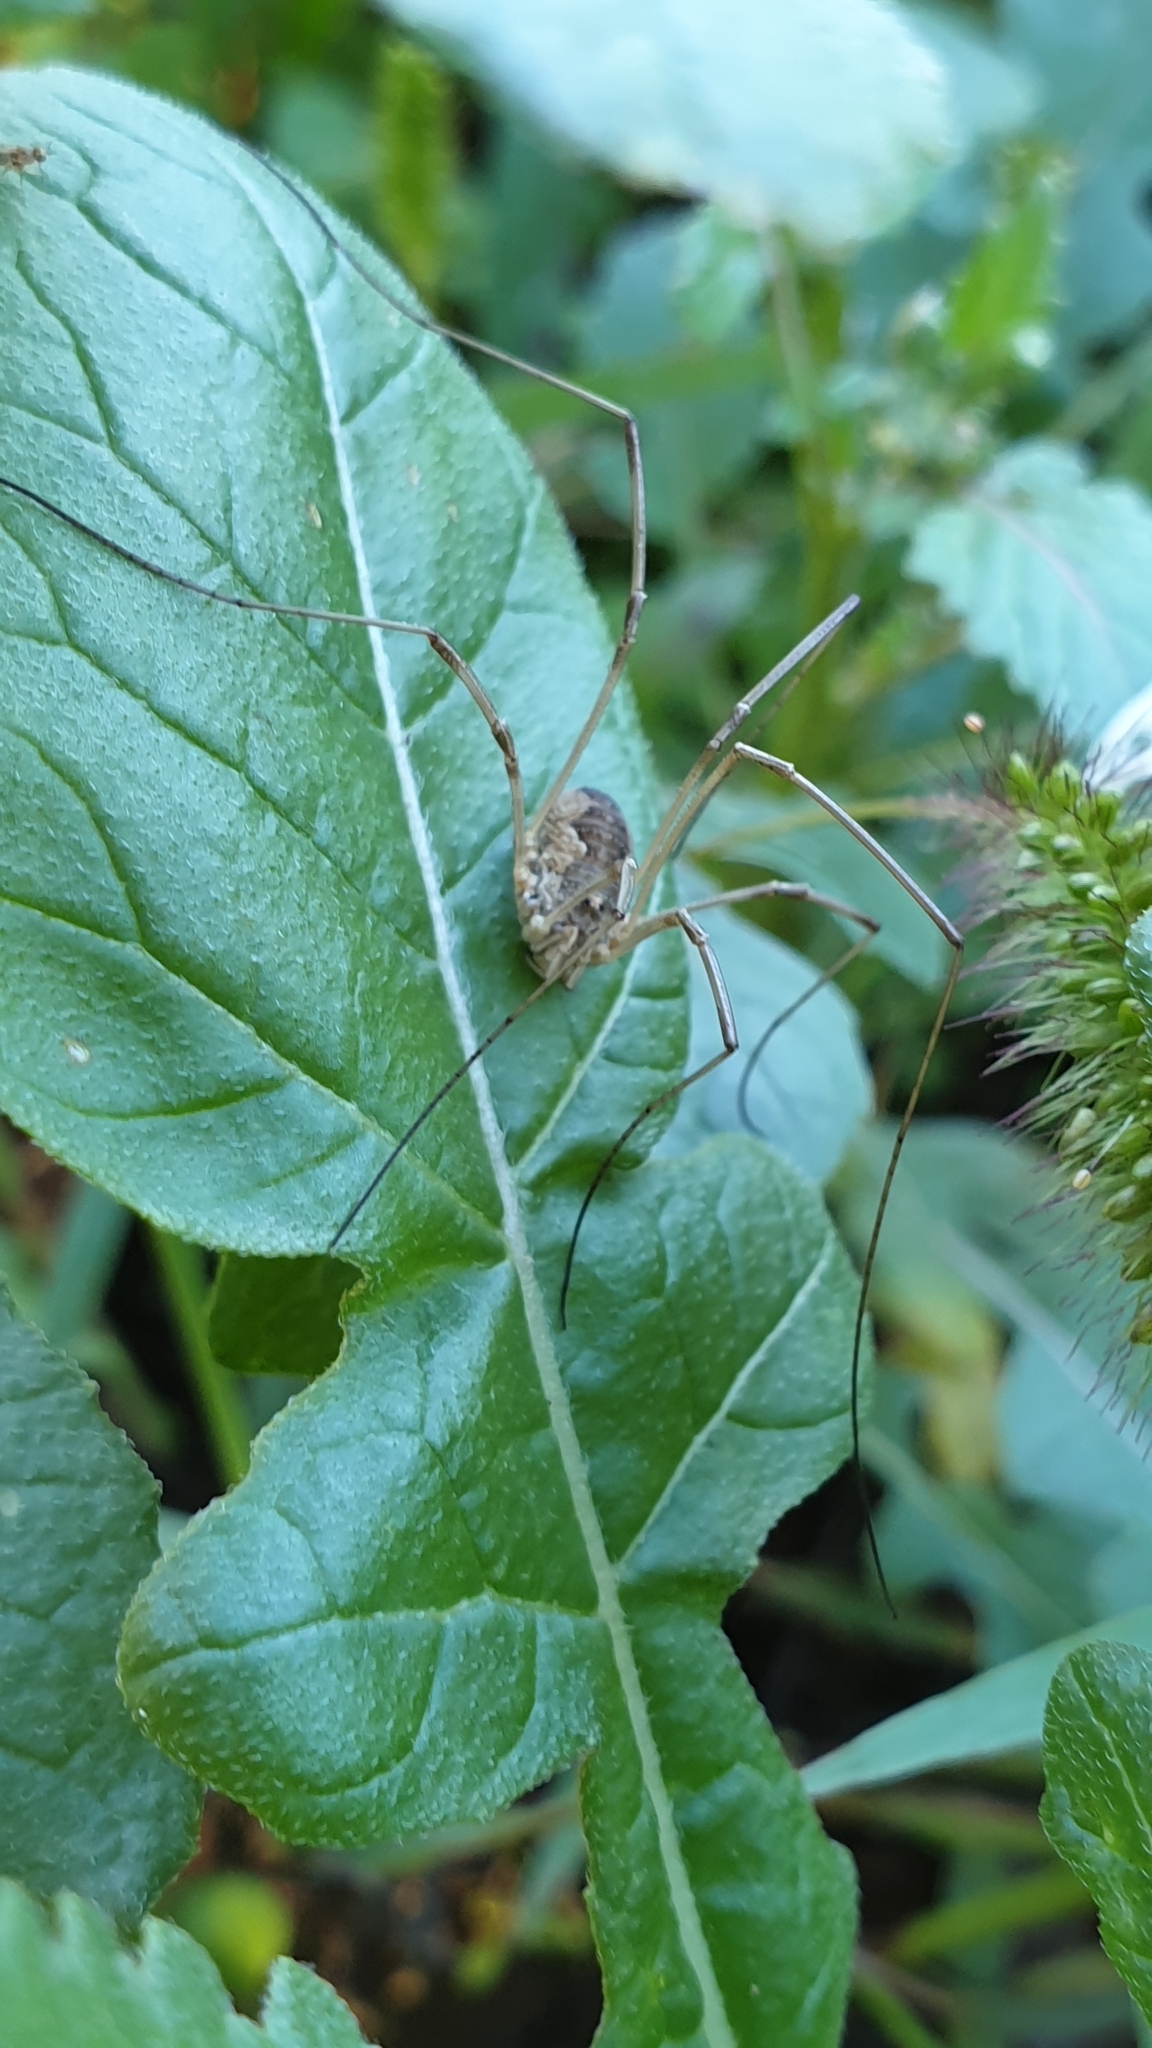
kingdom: Animalia
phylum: Arthropoda
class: Arachnida
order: Opiliones
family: Phalangiidae
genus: Phalangium
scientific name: Phalangium opilio
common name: Daddy longleg
